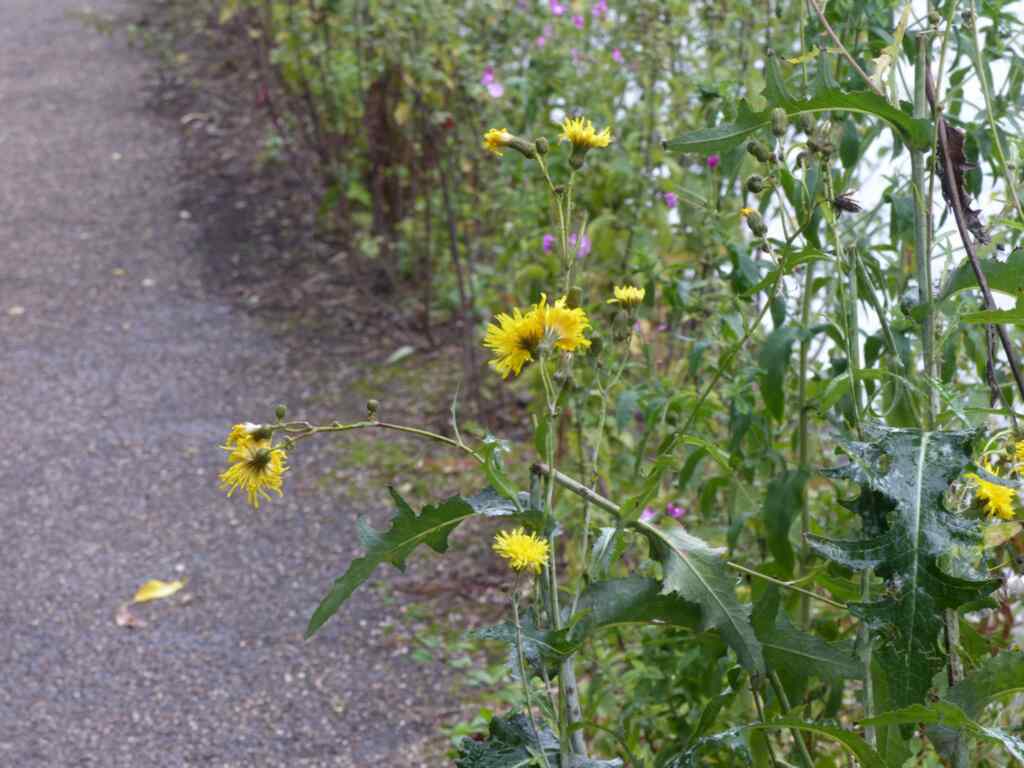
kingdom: Plantae
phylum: Tracheophyta
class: Magnoliopsida
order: Asterales
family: Asteraceae
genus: Sonchus
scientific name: Sonchus arvensis
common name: Perennial sow-thistle
